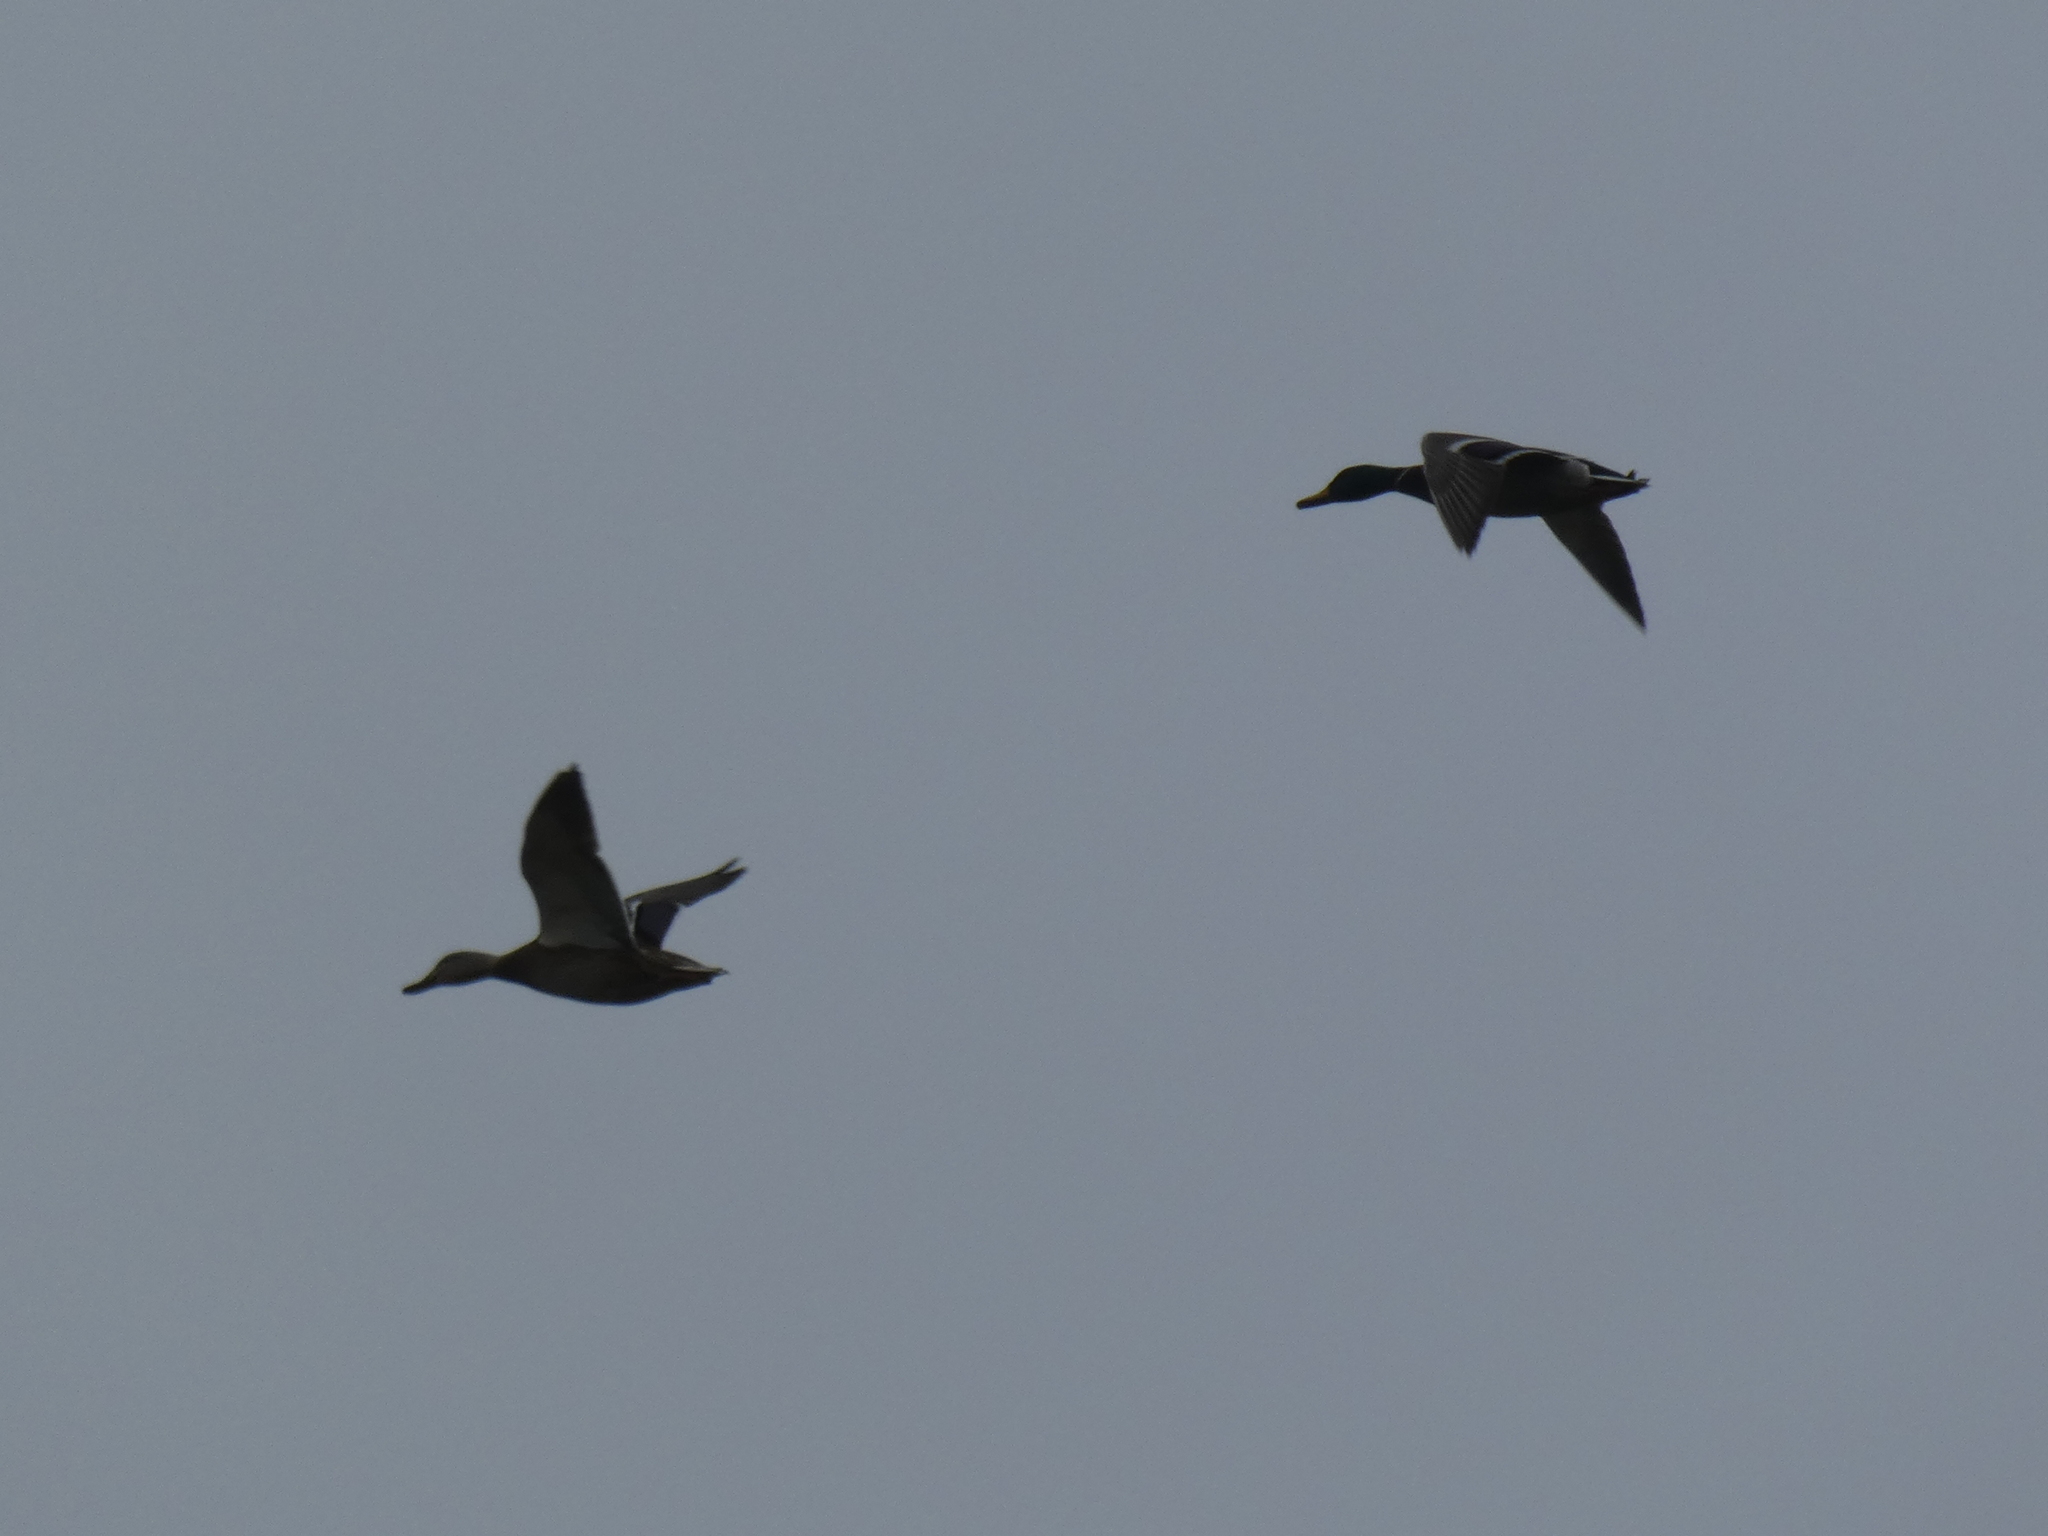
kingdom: Animalia
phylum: Chordata
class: Aves
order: Anseriformes
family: Anatidae
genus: Anas
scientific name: Anas platyrhynchos
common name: Mallard
